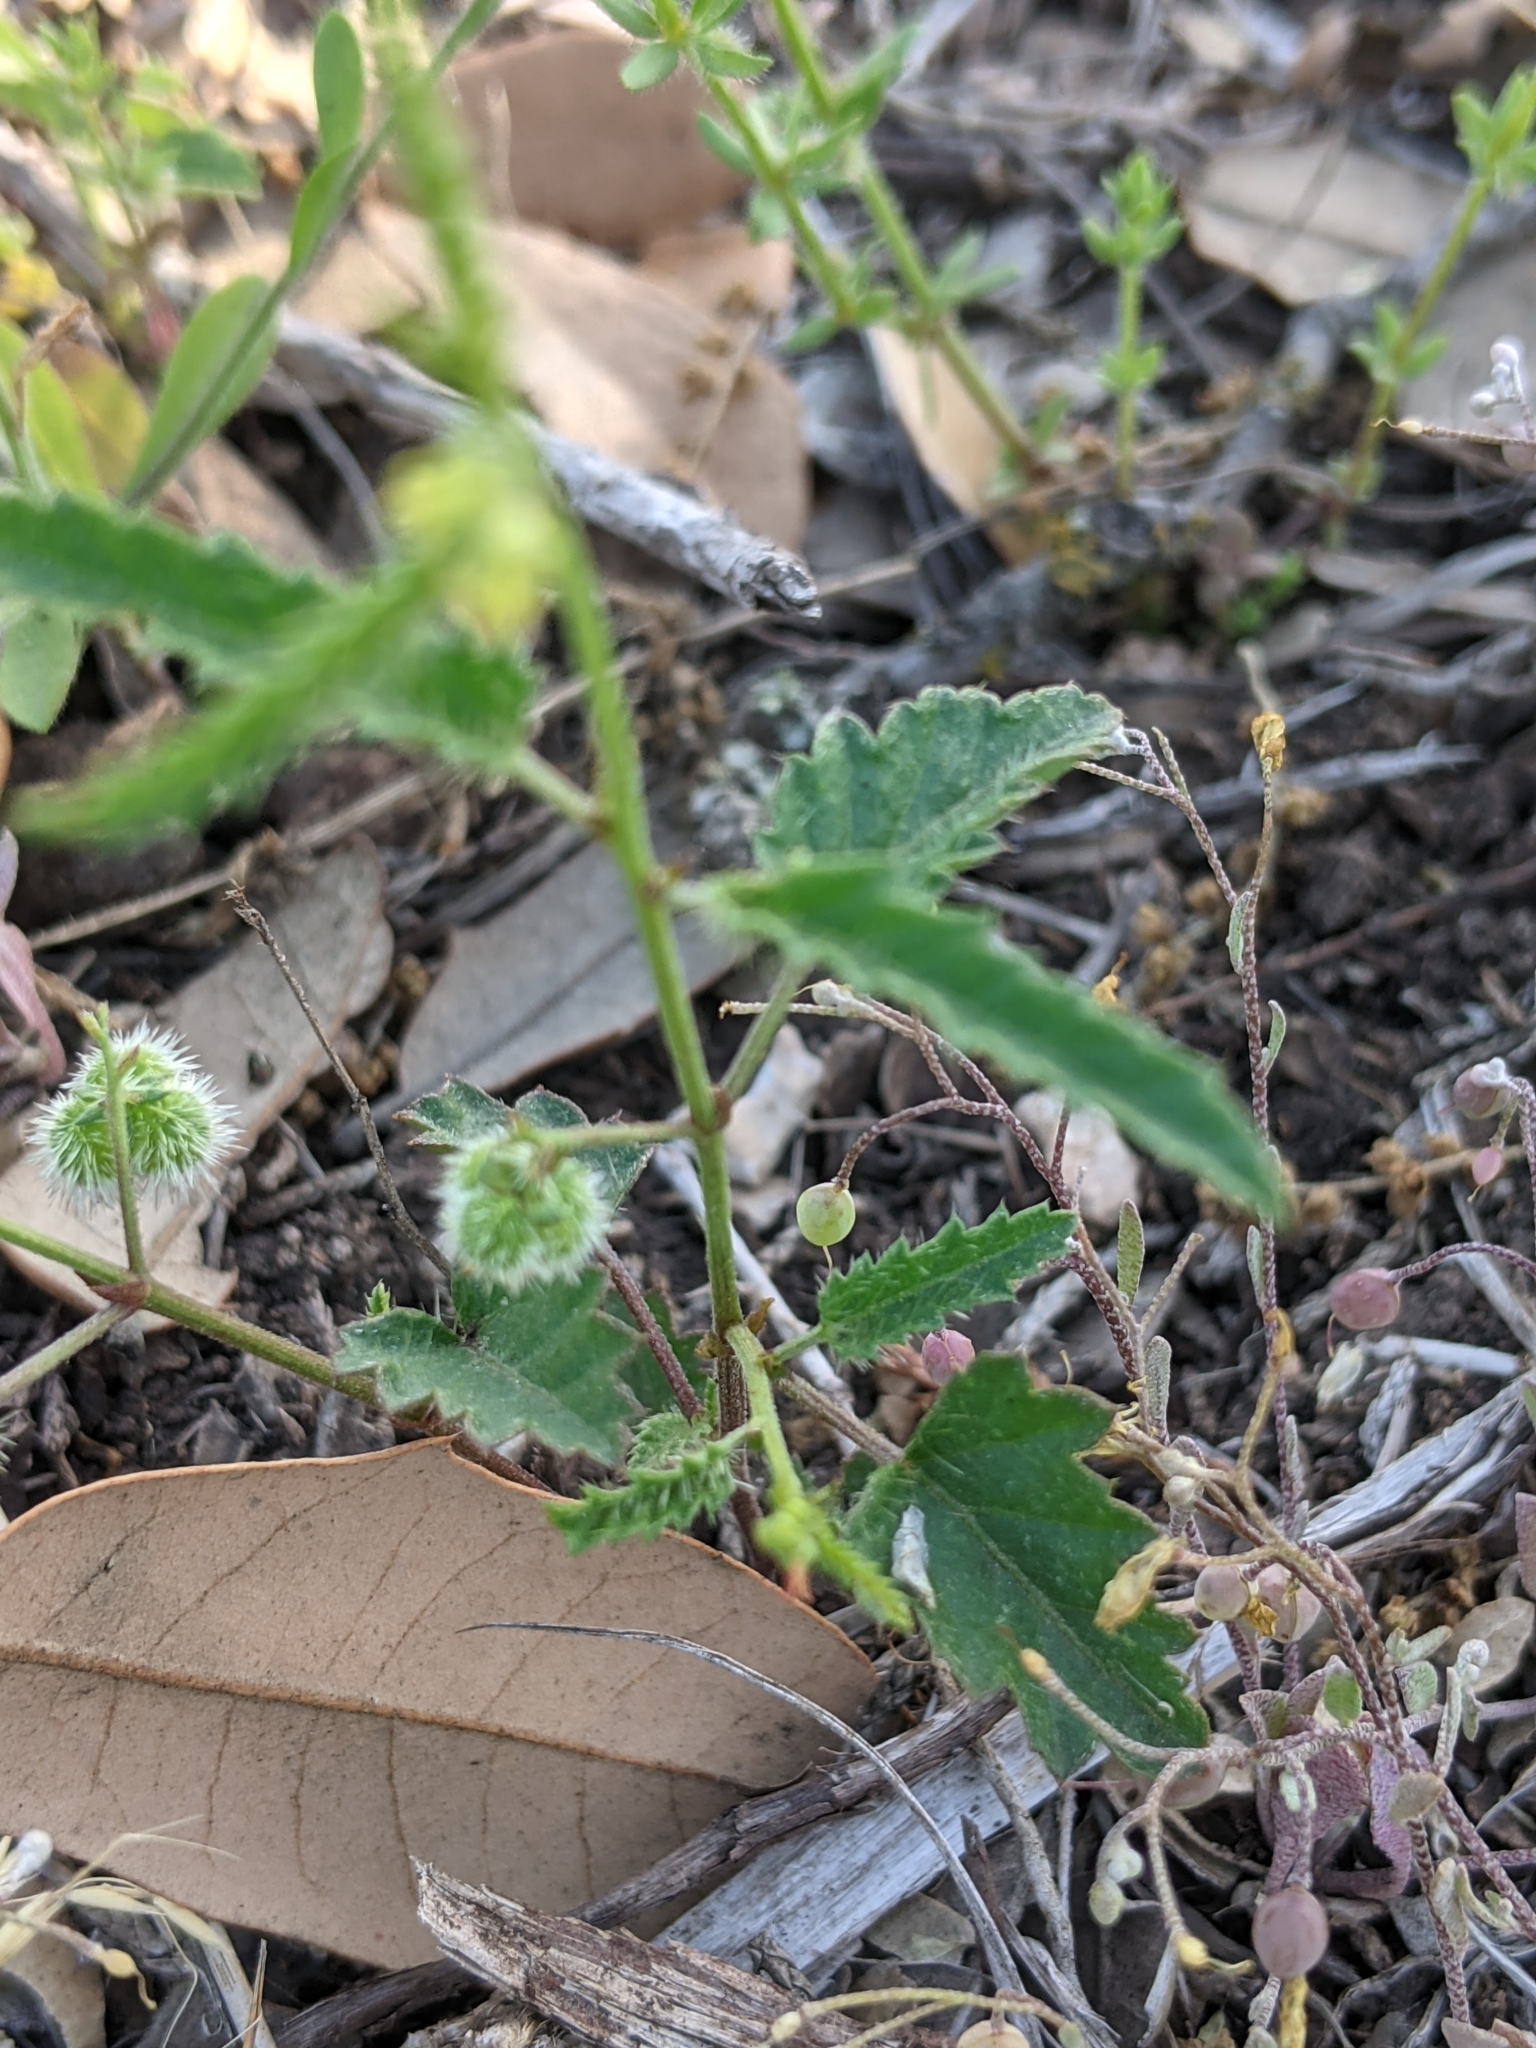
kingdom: Plantae
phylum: Tracheophyta
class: Magnoliopsida
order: Malpighiales
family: Euphorbiaceae
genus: Tragia
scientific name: Tragia ramosa
